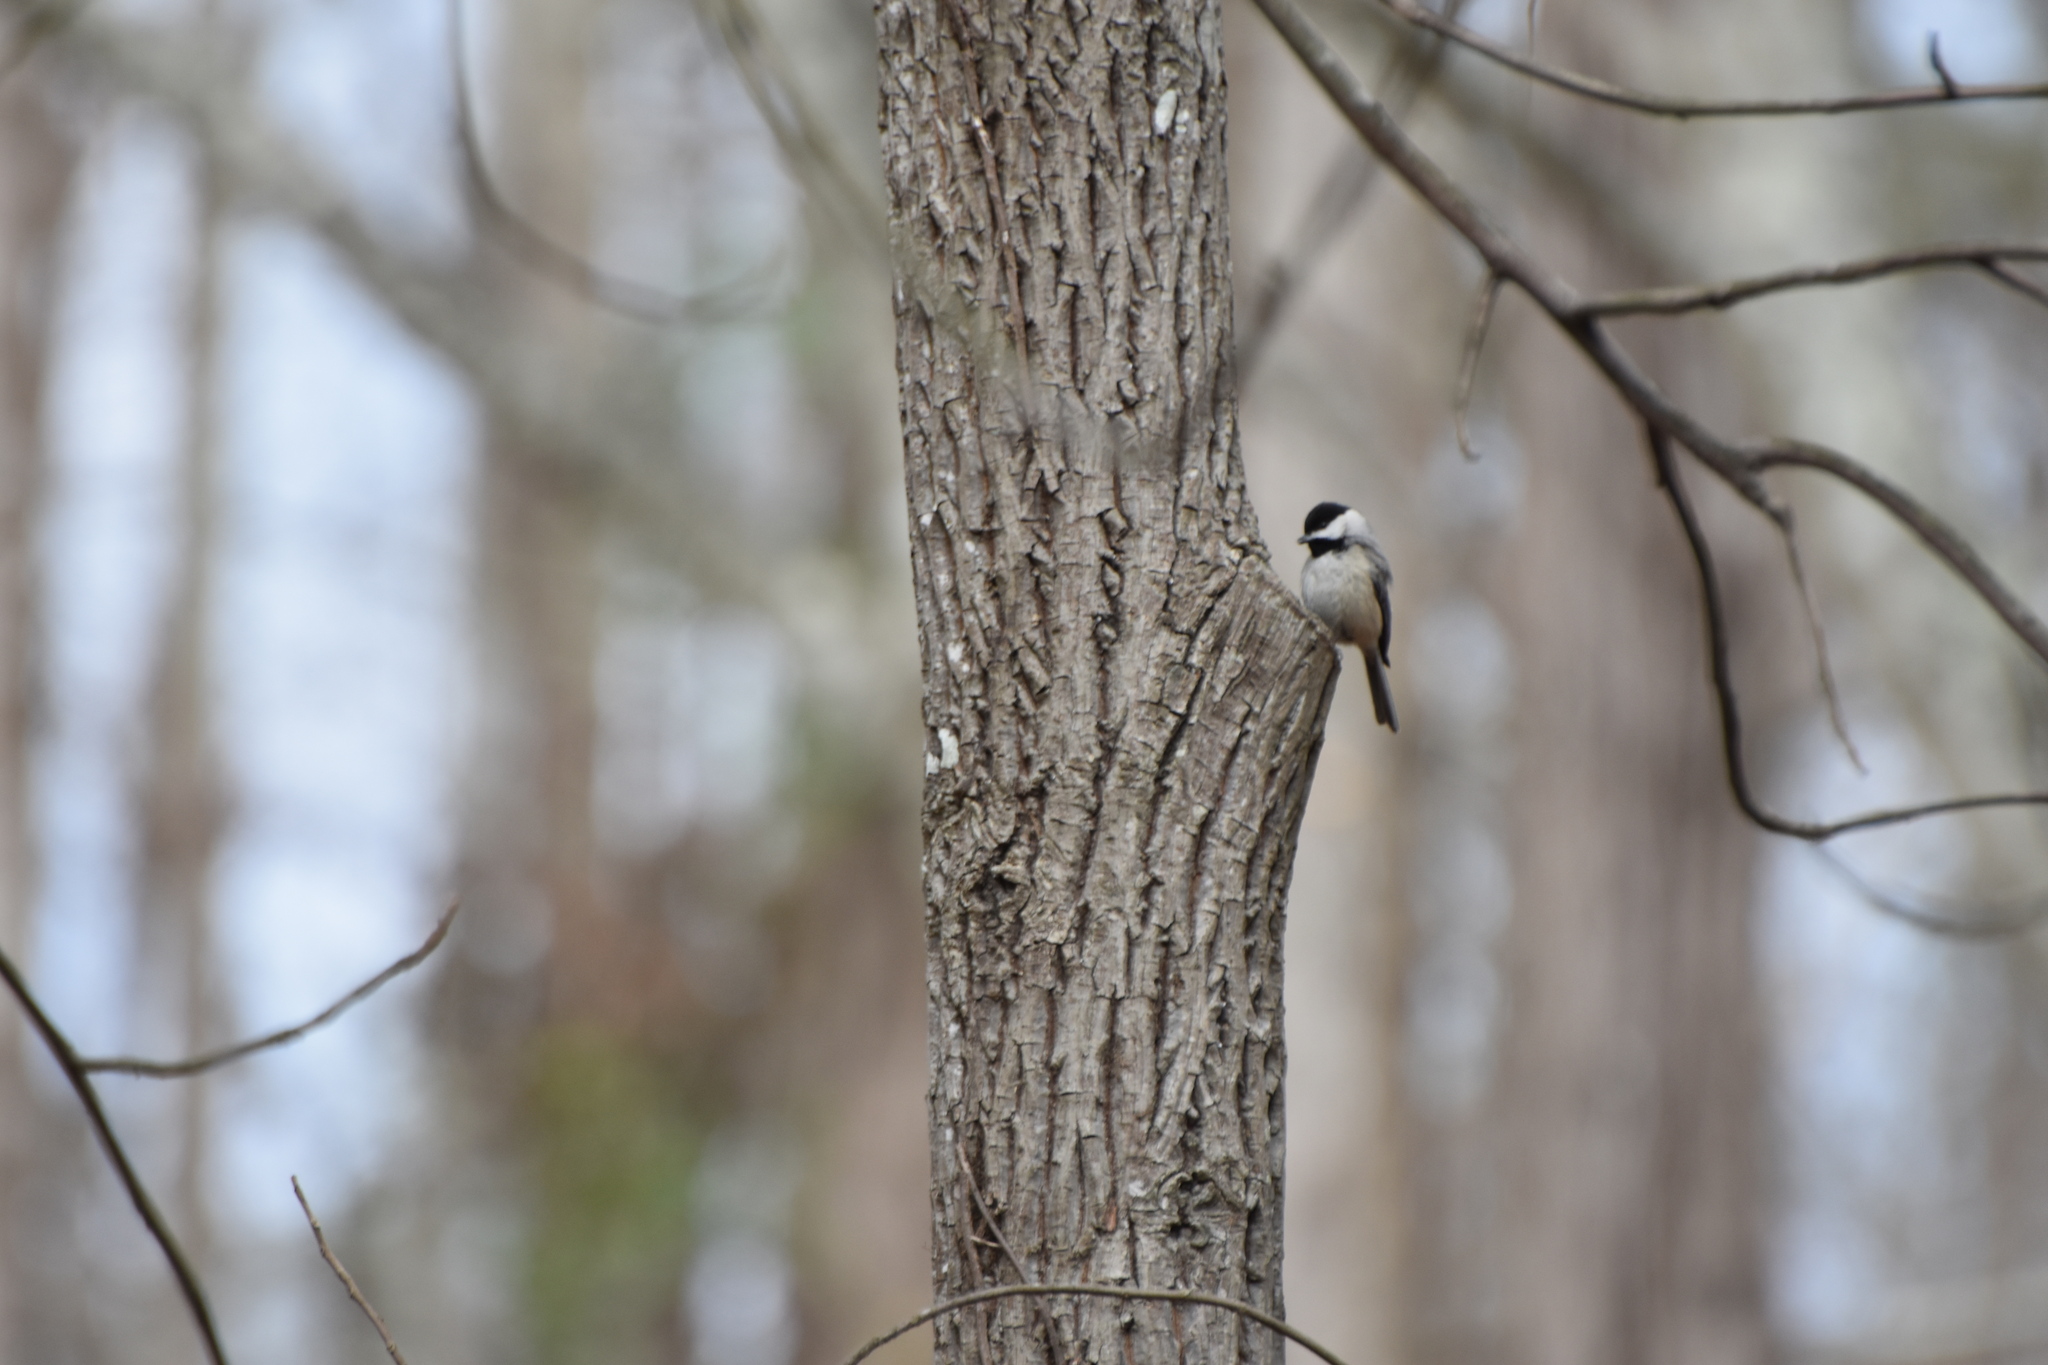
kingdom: Animalia
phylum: Chordata
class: Aves
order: Passeriformes
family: Paridae
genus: Poecile
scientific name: Poecile carolinensis
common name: Carolina chickadee
